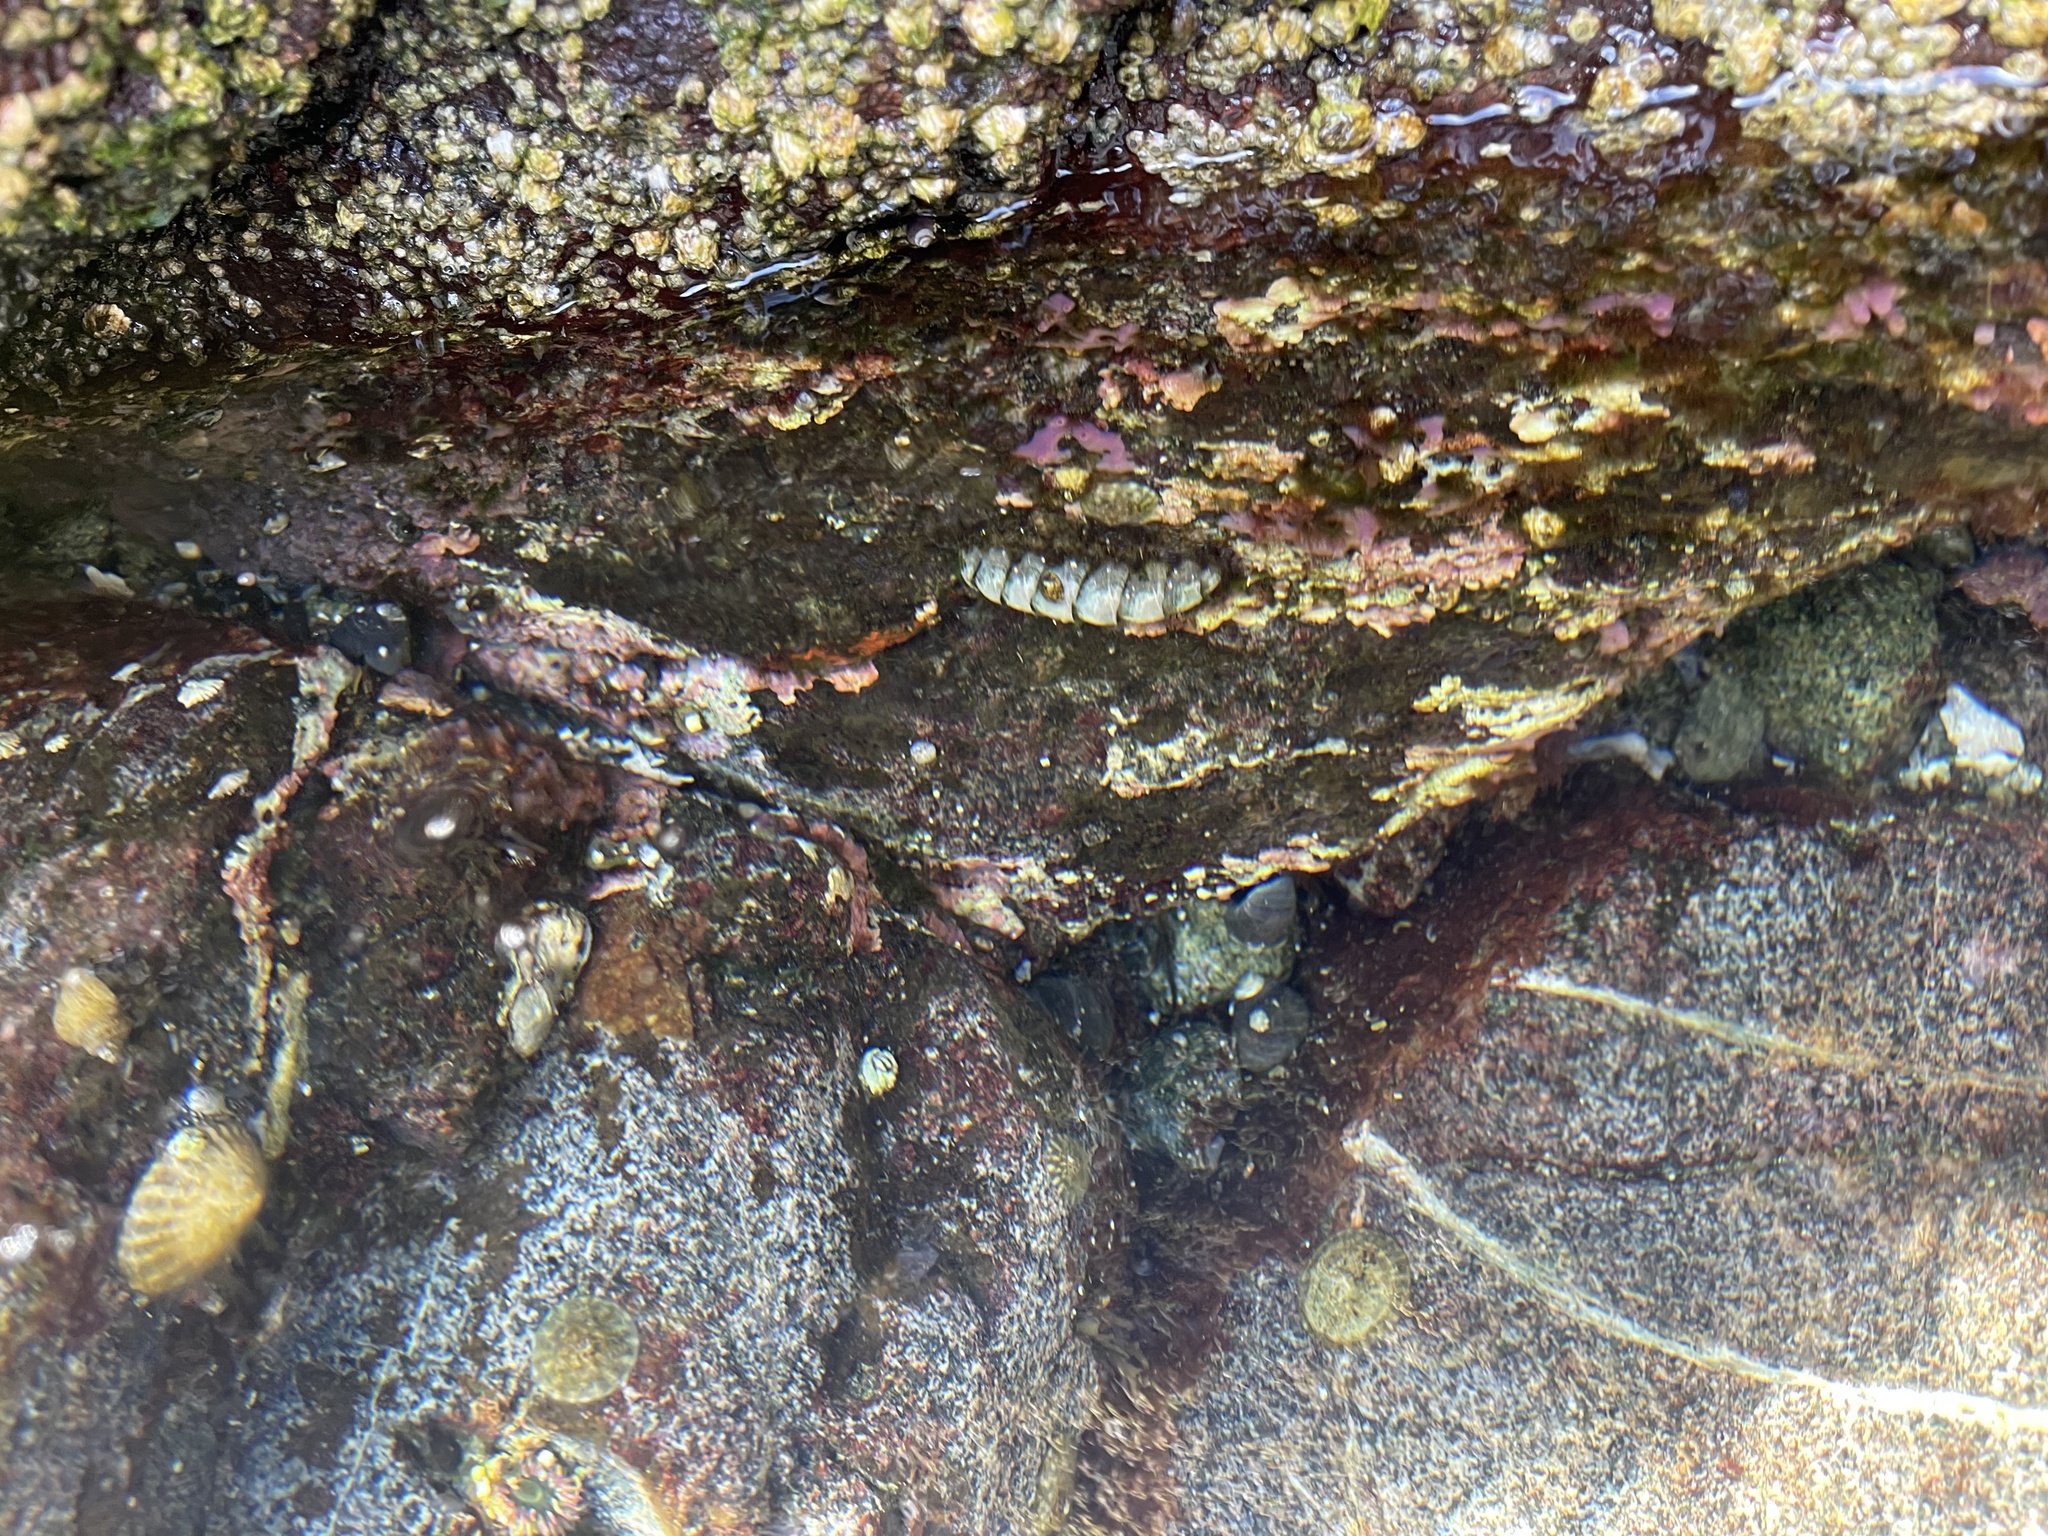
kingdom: Animalia
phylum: Mollusca
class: Polyplacophora
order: Chitonida
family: Mopaliidae
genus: Mopalia
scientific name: Mopalia muscosa
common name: Mossy chiton
